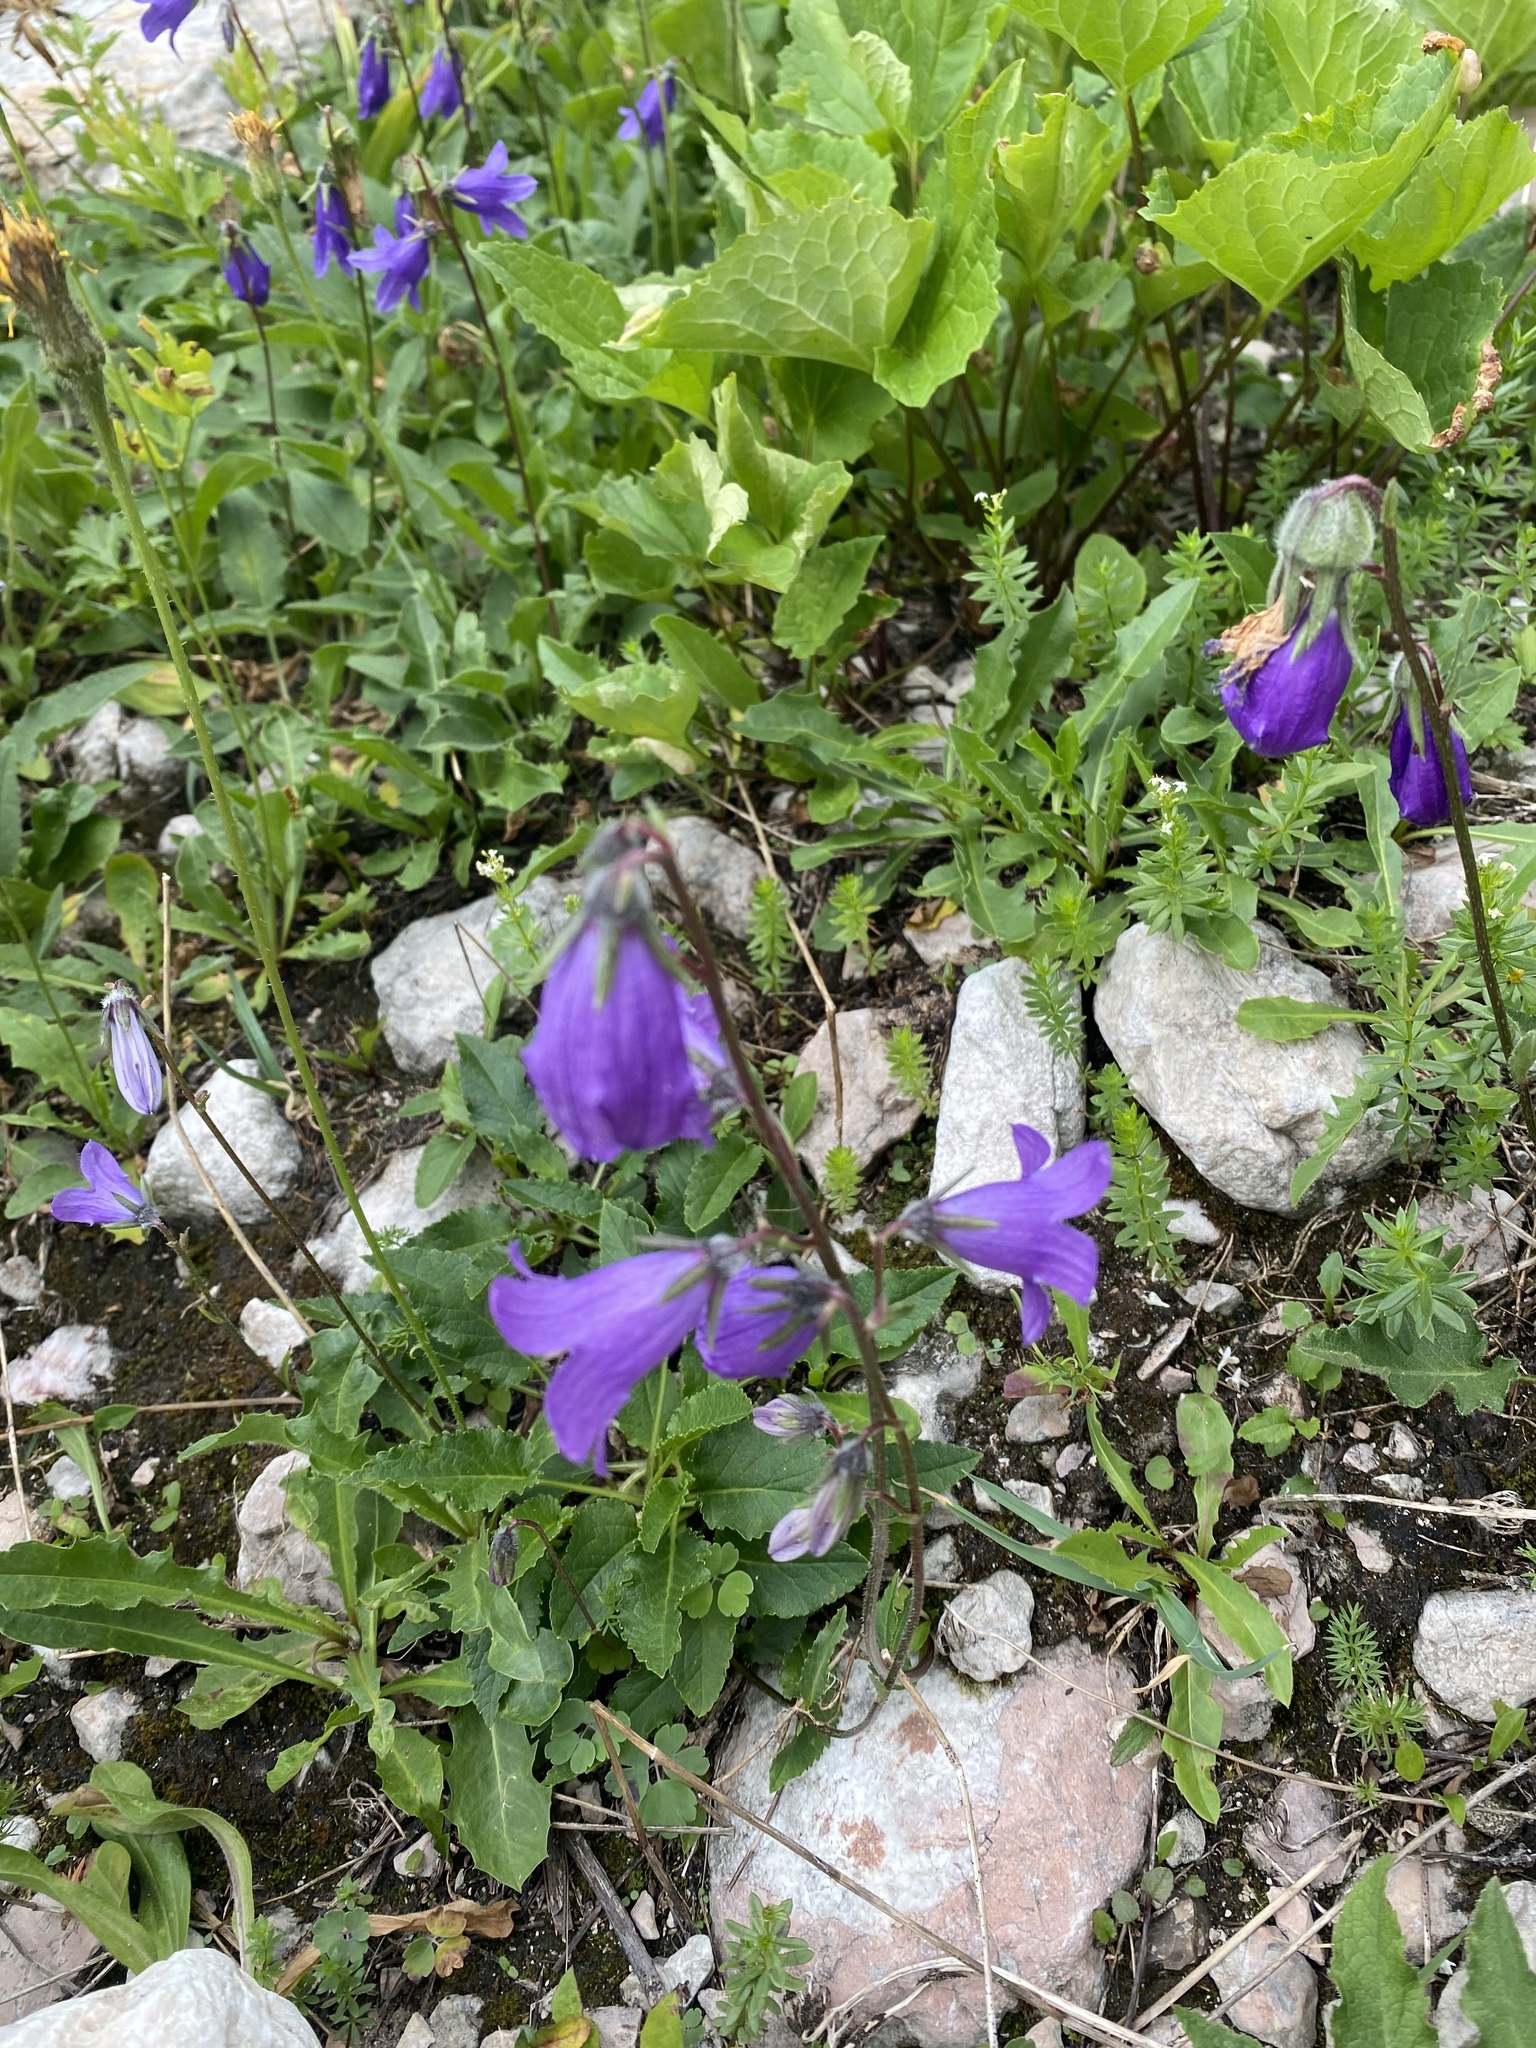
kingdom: Plantae
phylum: Tracheophyta
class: Magnoliopsida
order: Asterales
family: Campanulaceae
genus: Campanula
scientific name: Campanula collina
